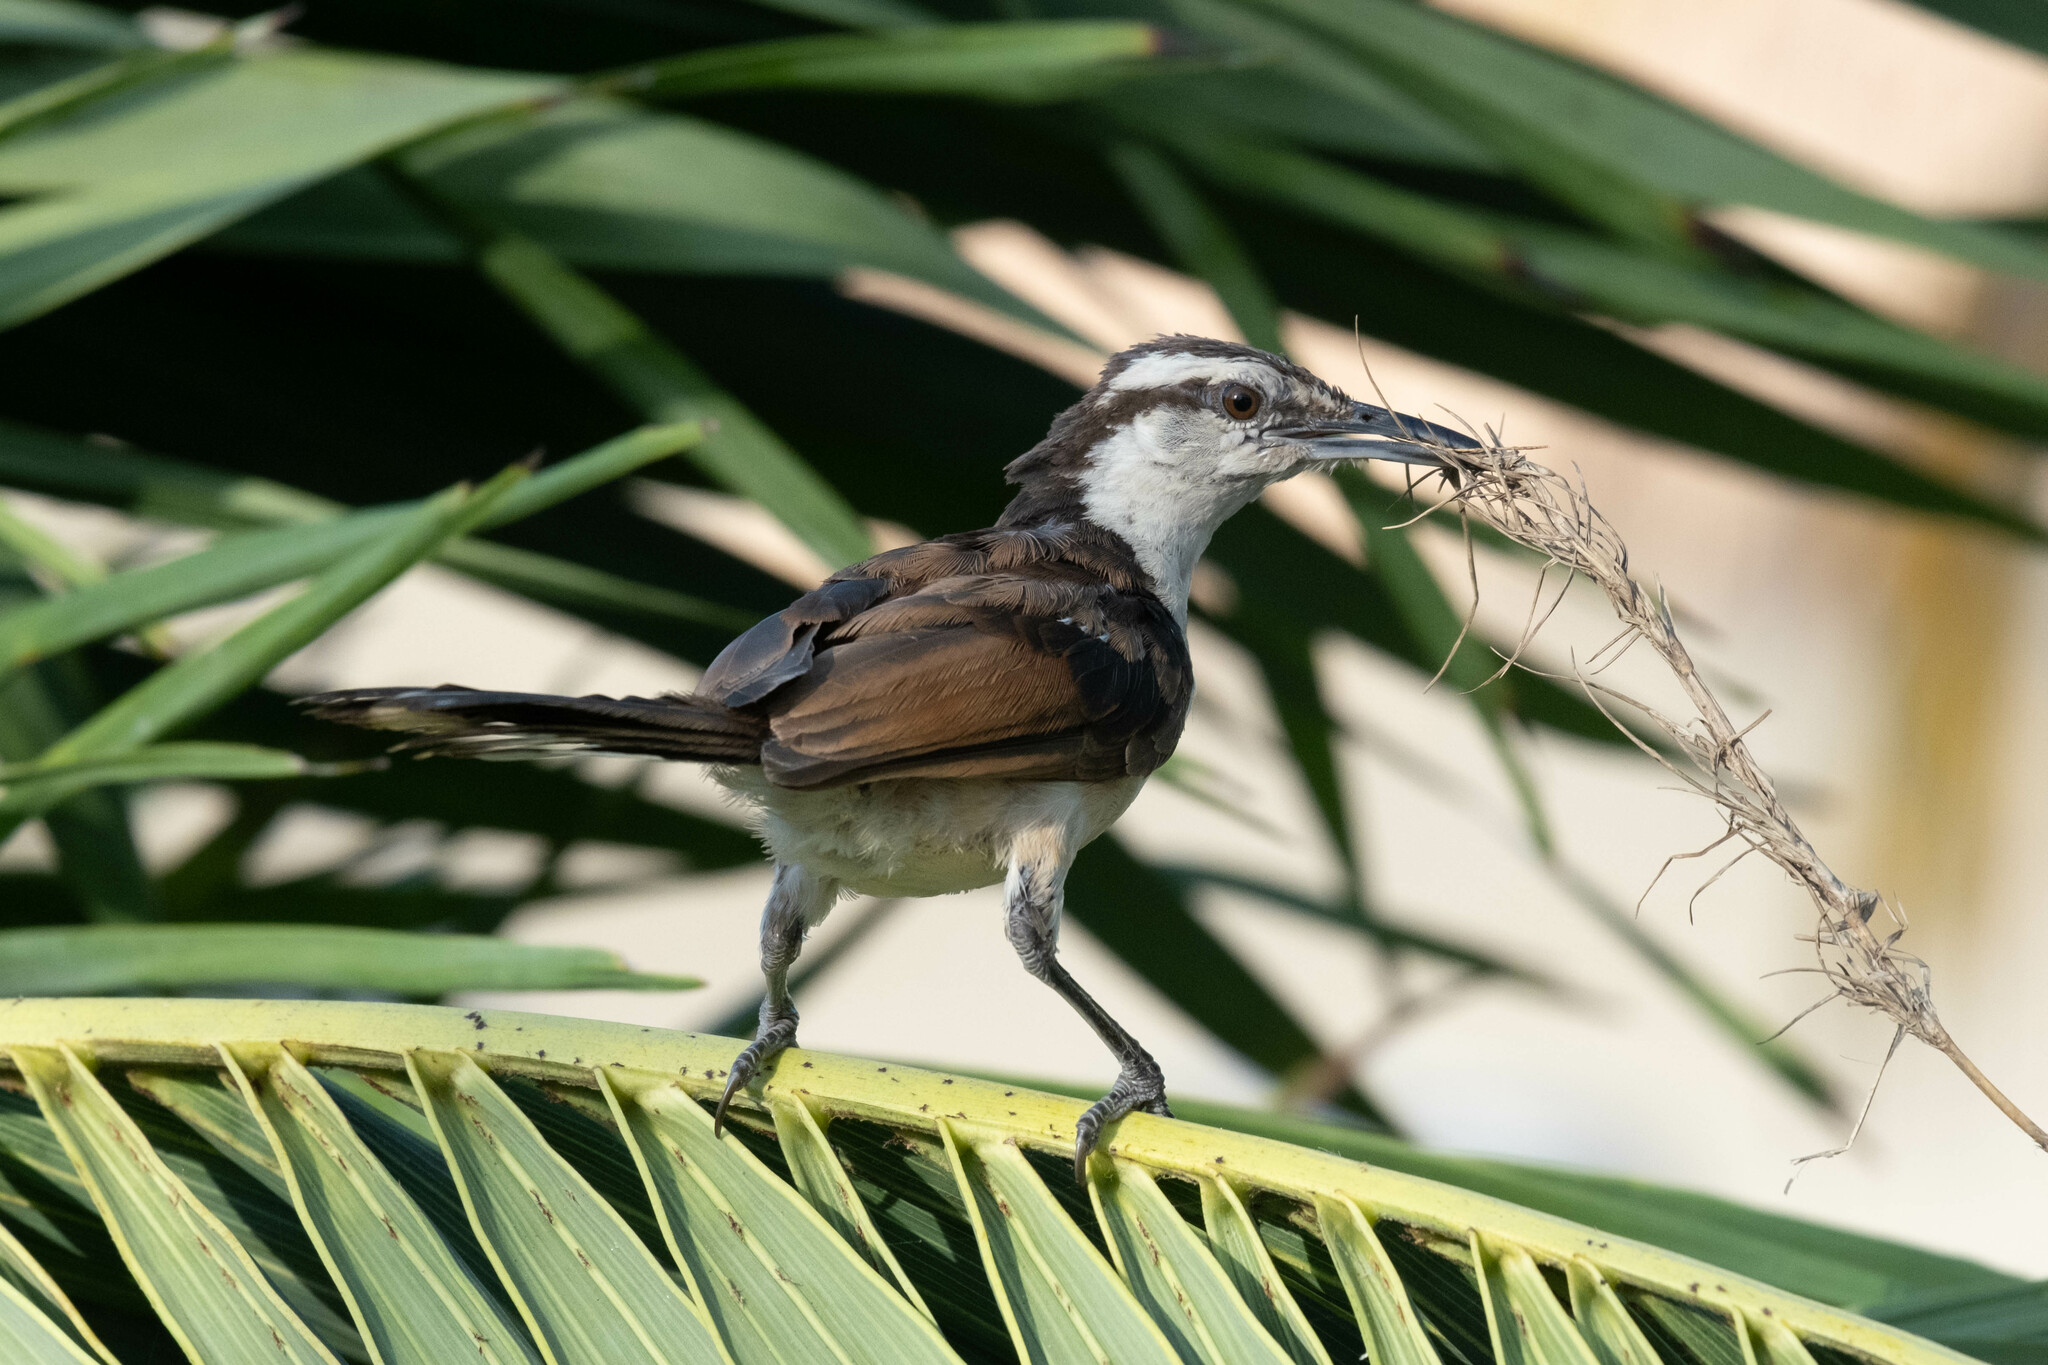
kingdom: Animalia
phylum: Chordata
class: Aves
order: Passeriformes
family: Troglodytidae
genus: Campylorhynchus
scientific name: Campylorhynchus griseus
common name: Bicolored wren
